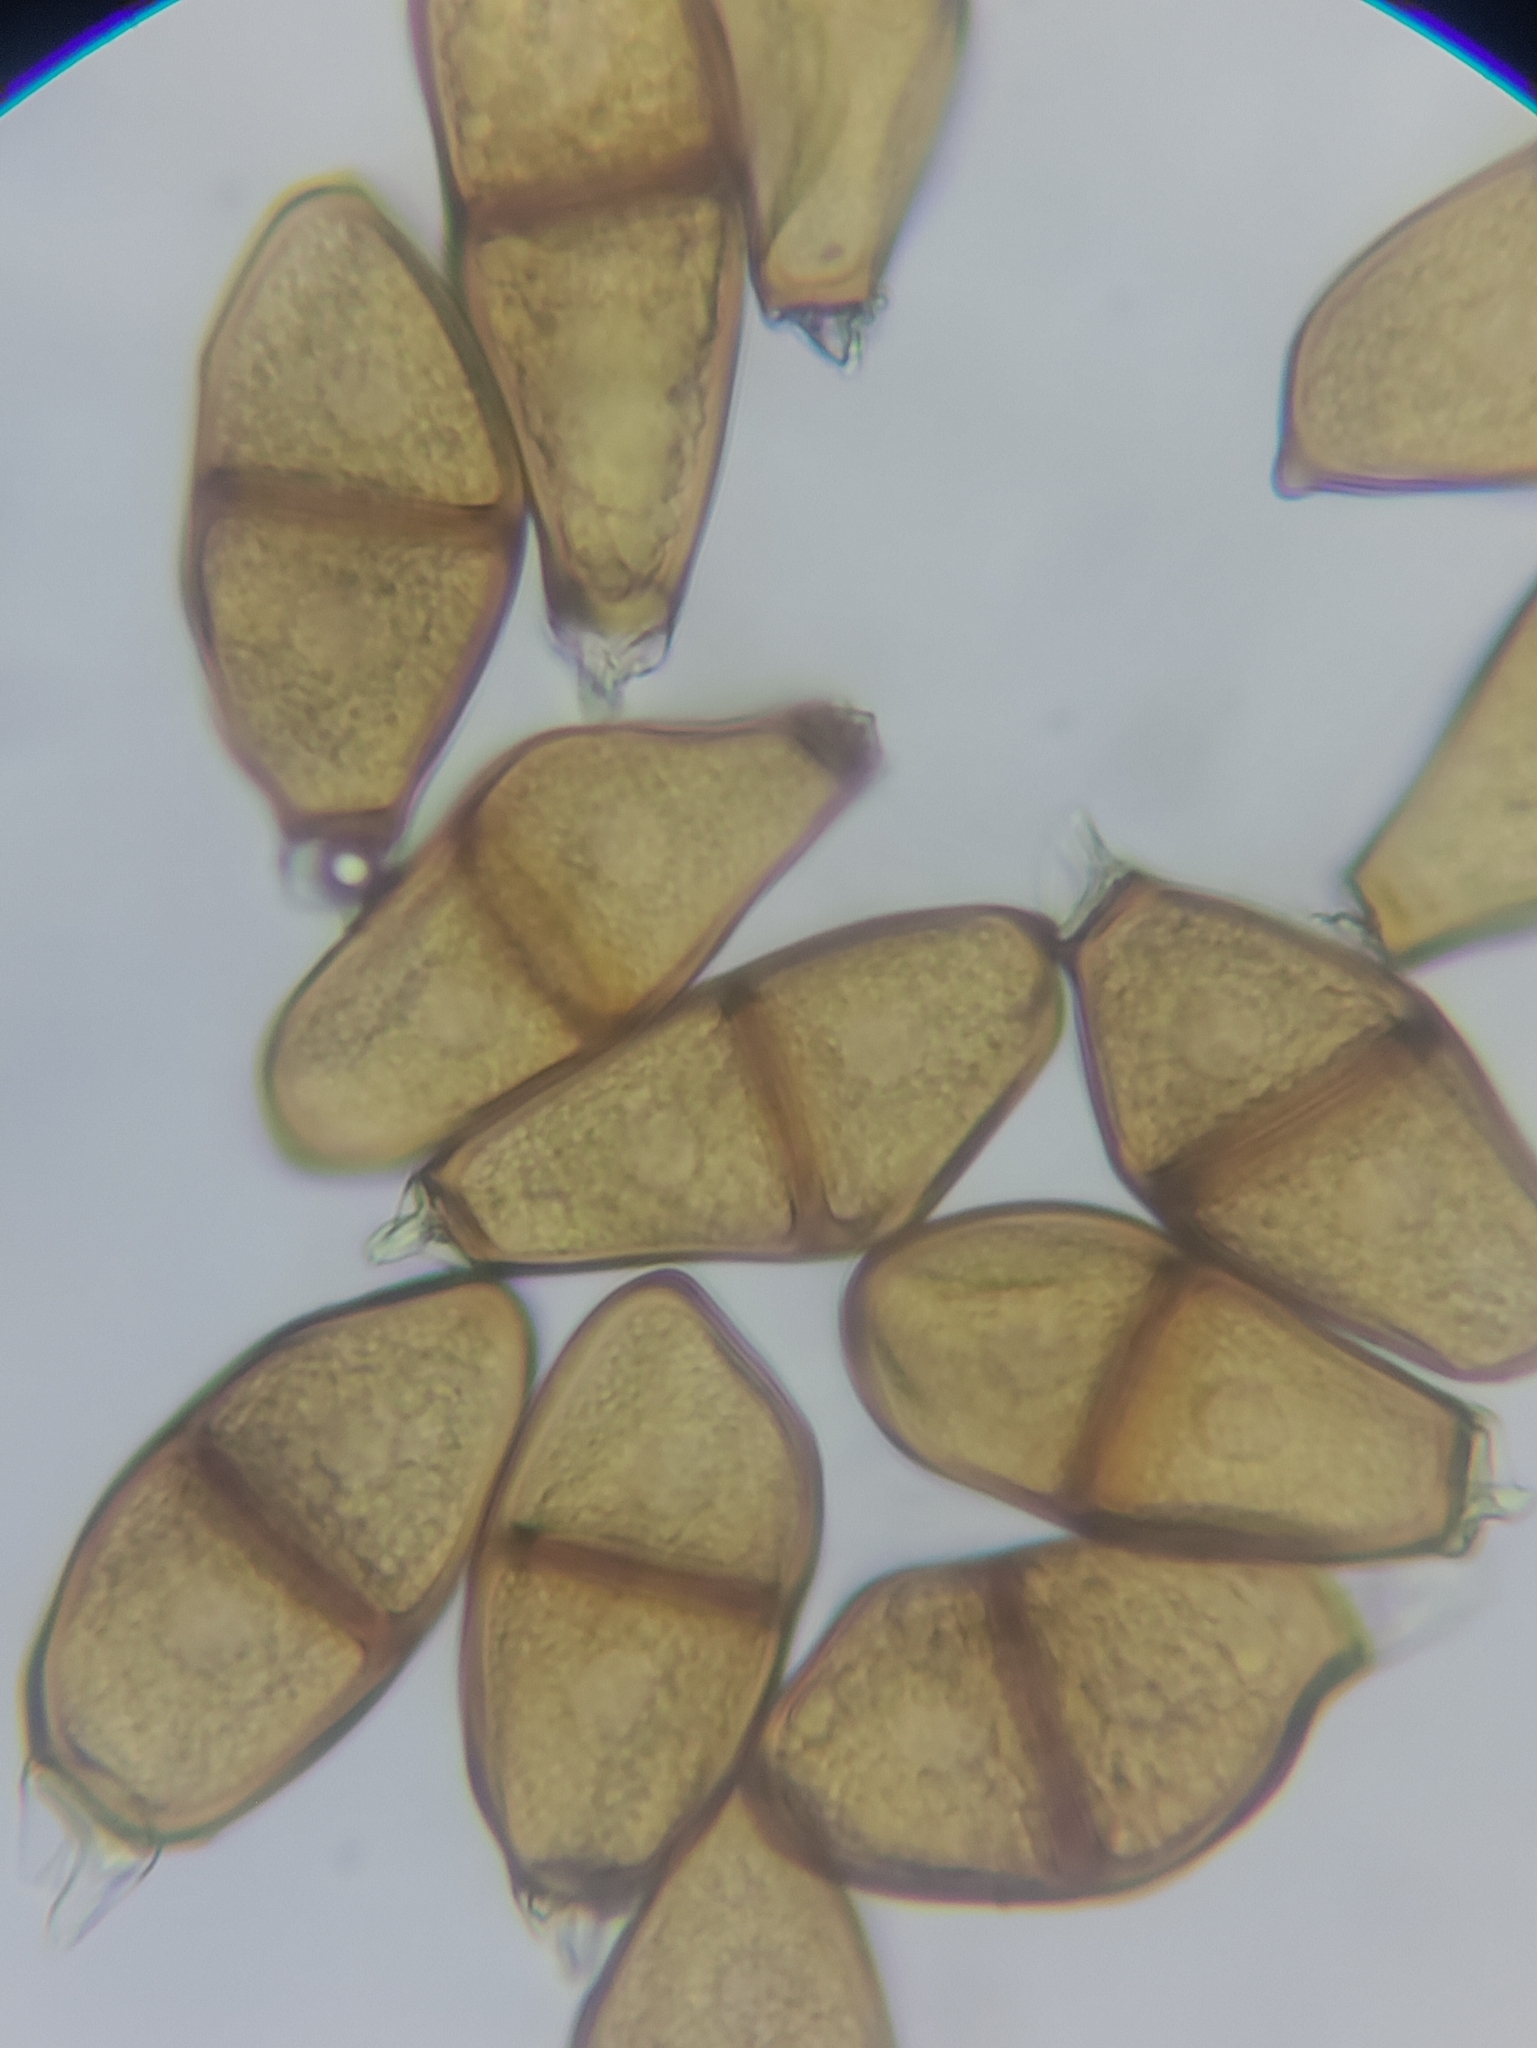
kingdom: Fungi
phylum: Basidiomycota
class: Pucciniomycetes
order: Pucciniales
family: Pucciniaceae
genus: Puccinia
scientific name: Puccinia liliacearum
